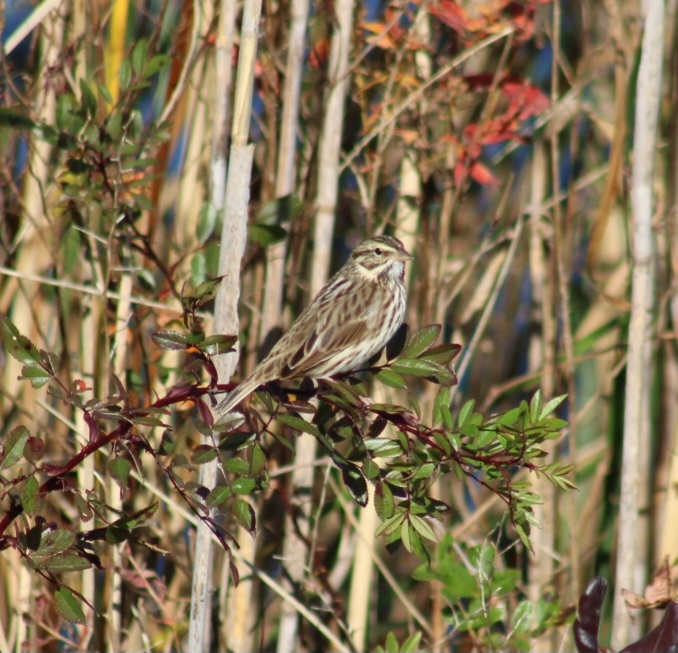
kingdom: Animalia
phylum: Chordata
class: Aves
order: Passeriformes
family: Passerellidae
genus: Passerculus
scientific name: Passerculus sandwichensis
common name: Savannah sparrow
